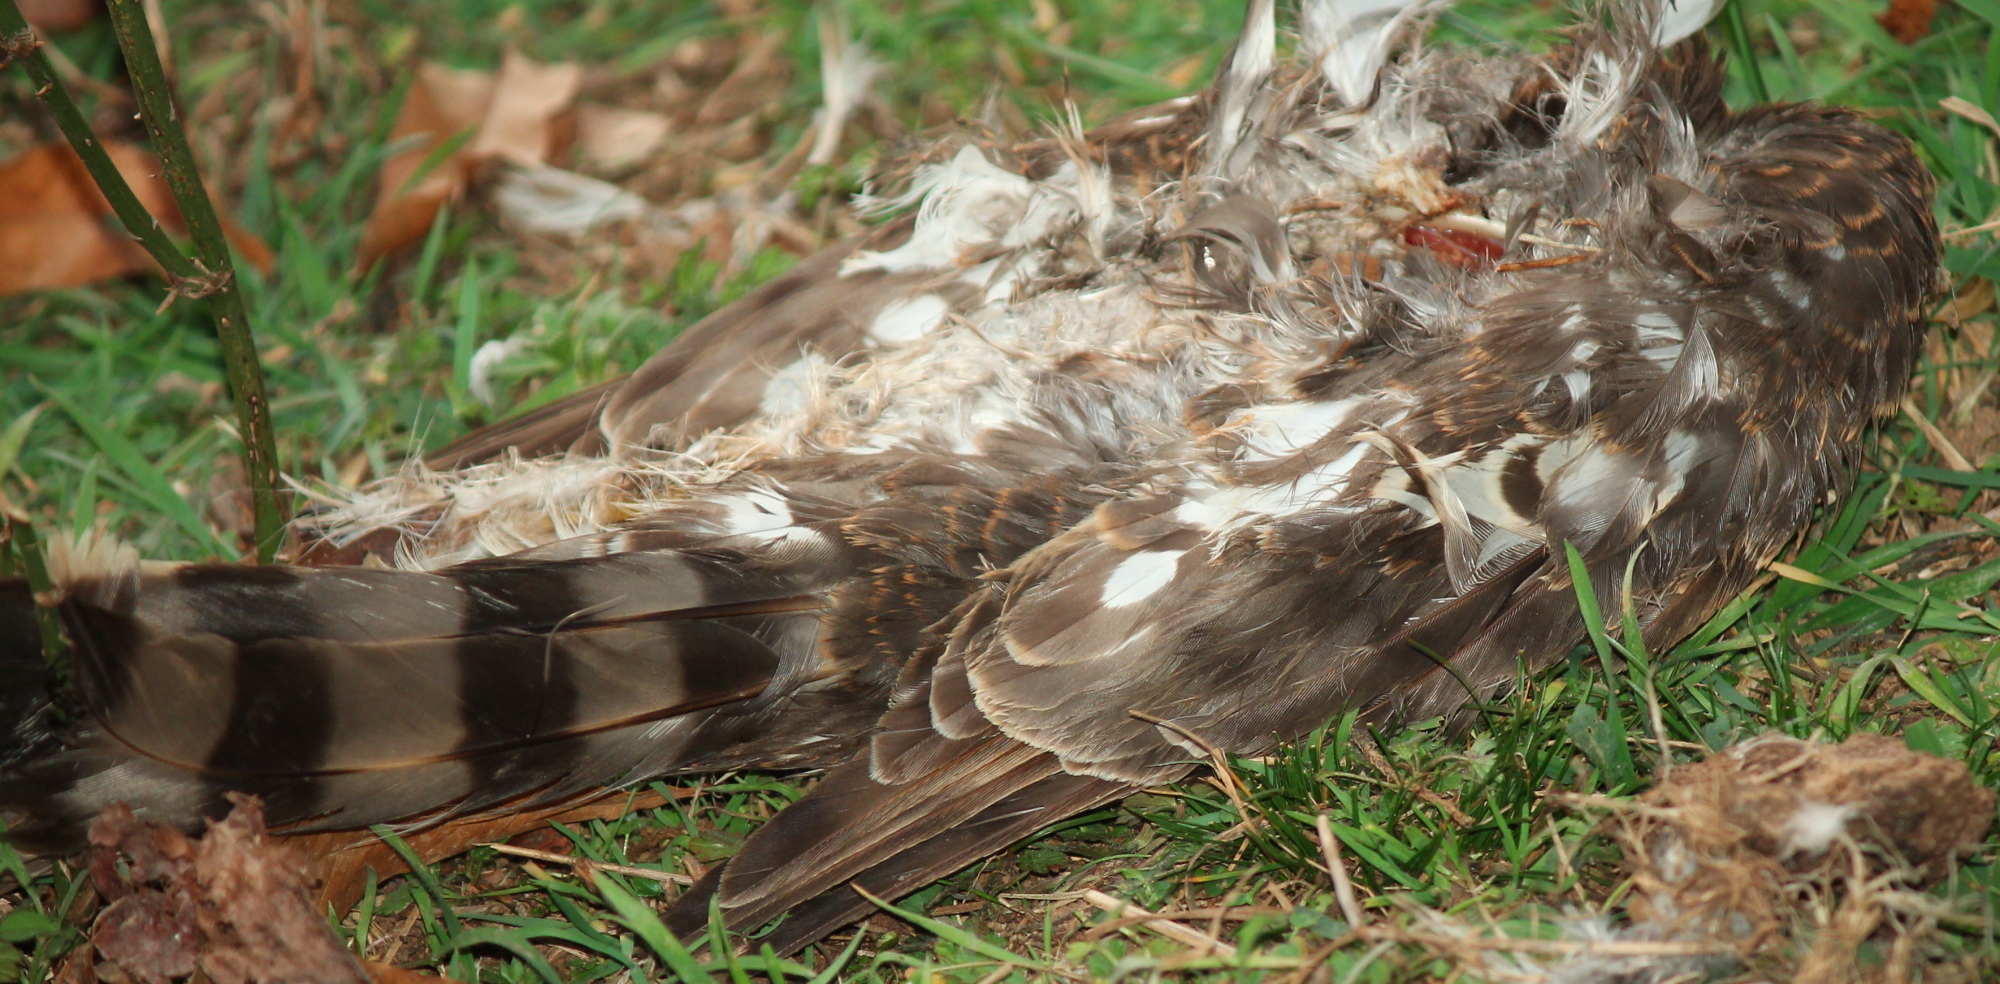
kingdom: Animalia
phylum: Chordata
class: Aves
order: Accipitriformes
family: Accipitridae
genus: Accipiter
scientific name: Accipiter striatus
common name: Sharp-shinned hawk
